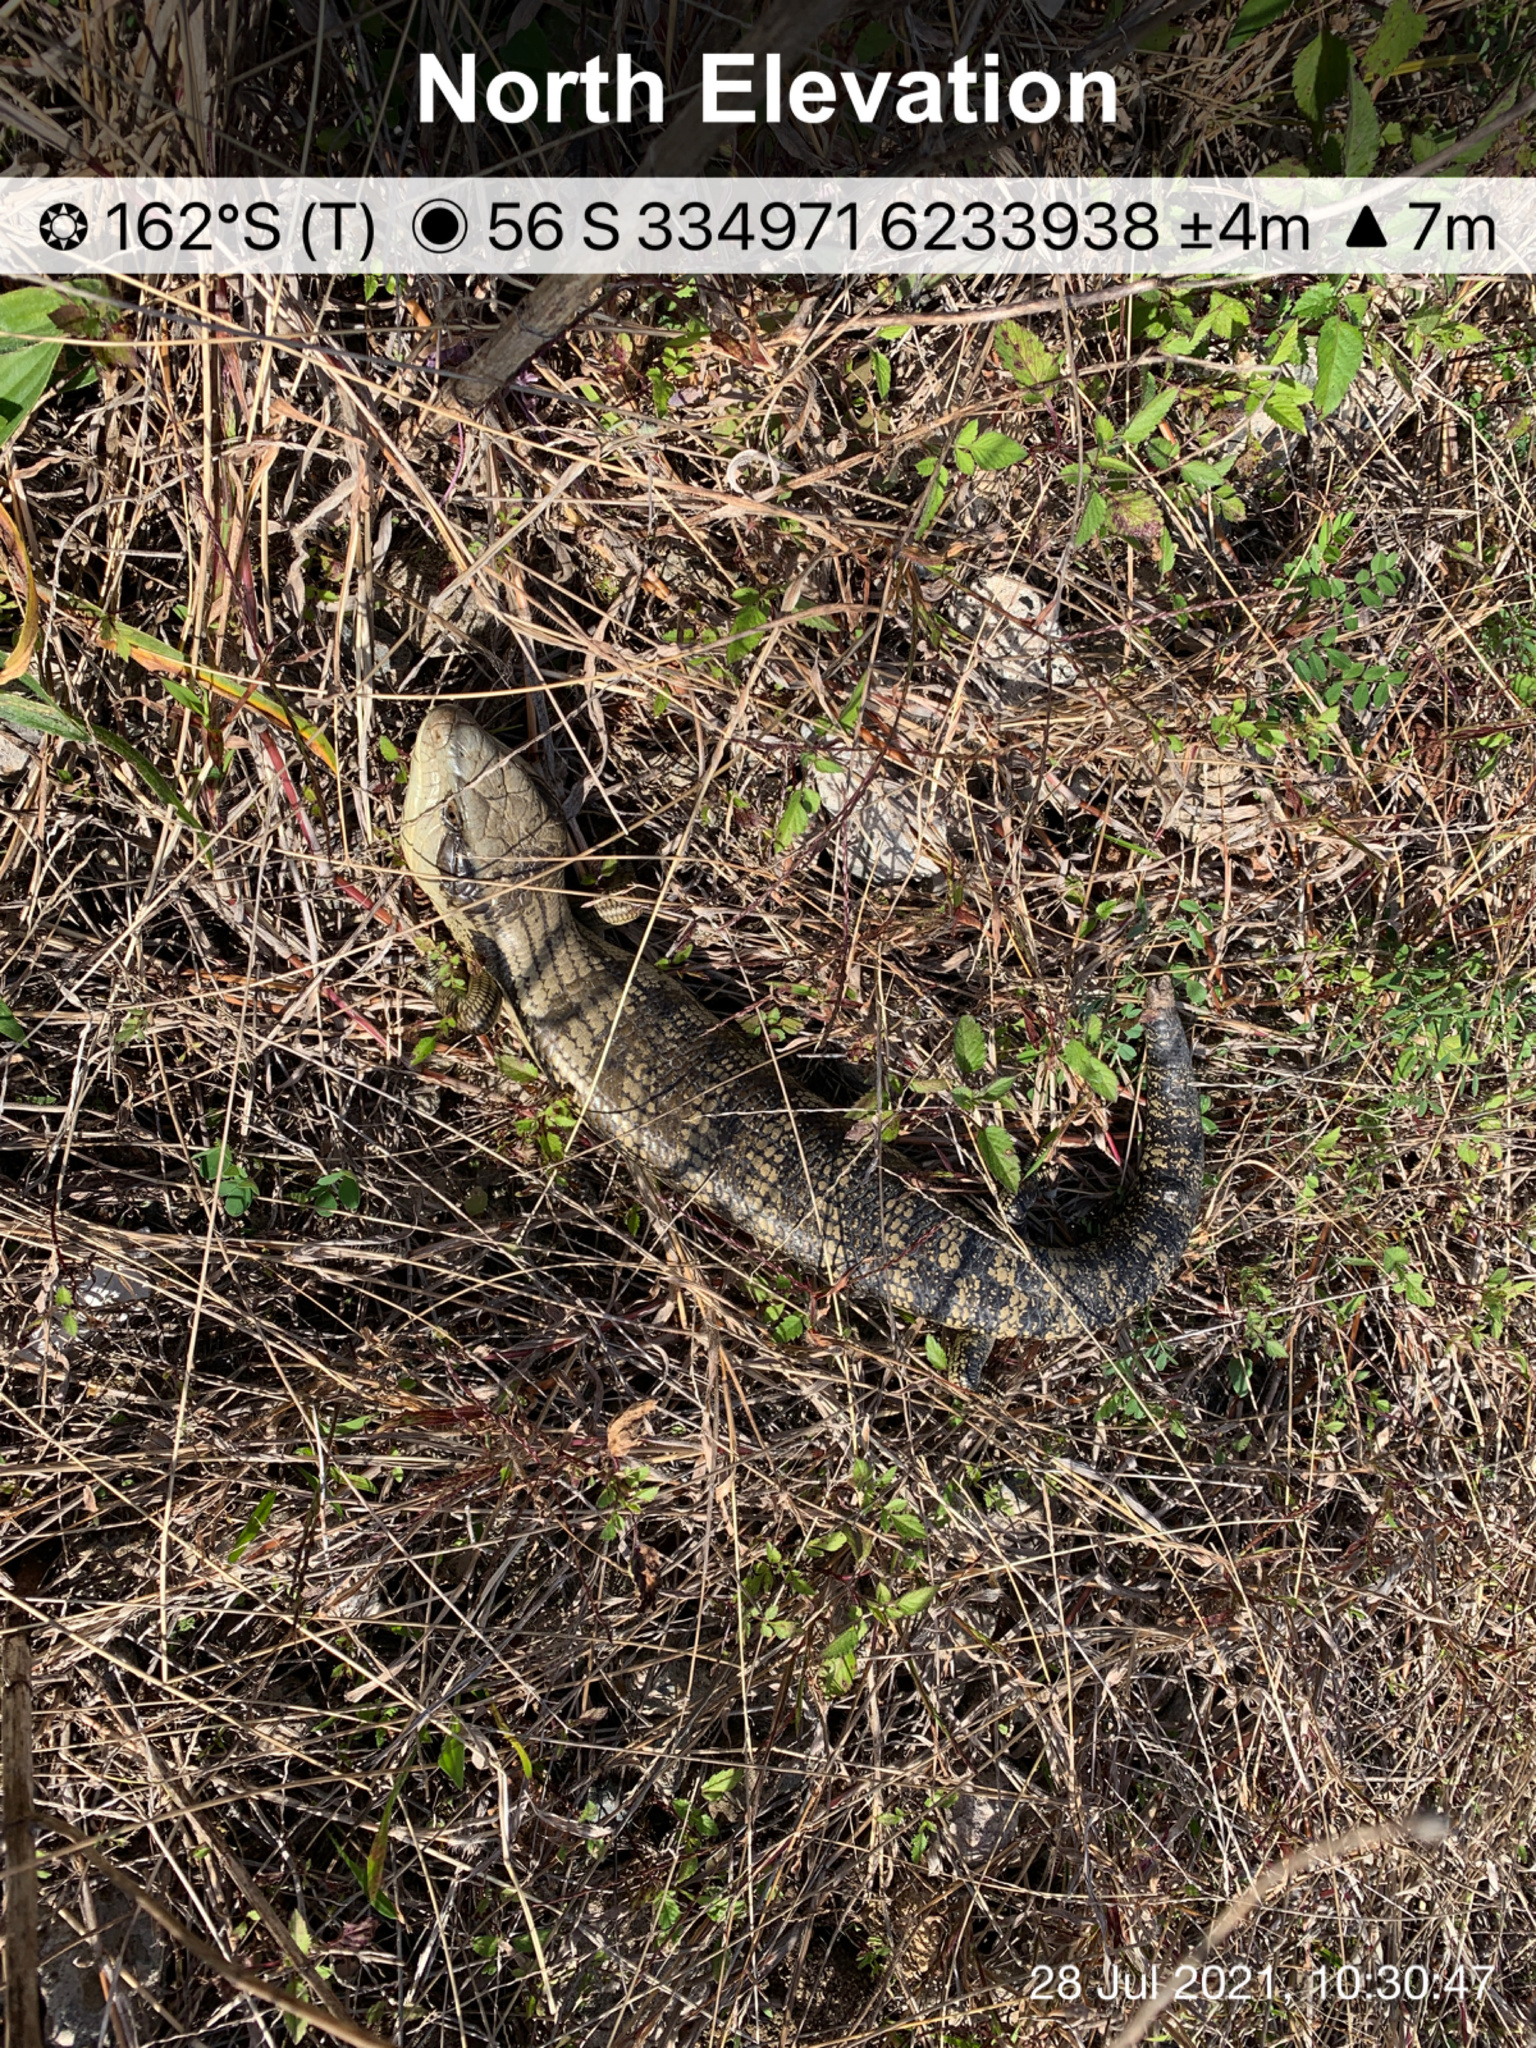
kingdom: Animalia
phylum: Chordata
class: Squamata
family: Scincidae
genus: Tiliqua
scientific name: Tiliqua scincoides
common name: Common bluetongue
